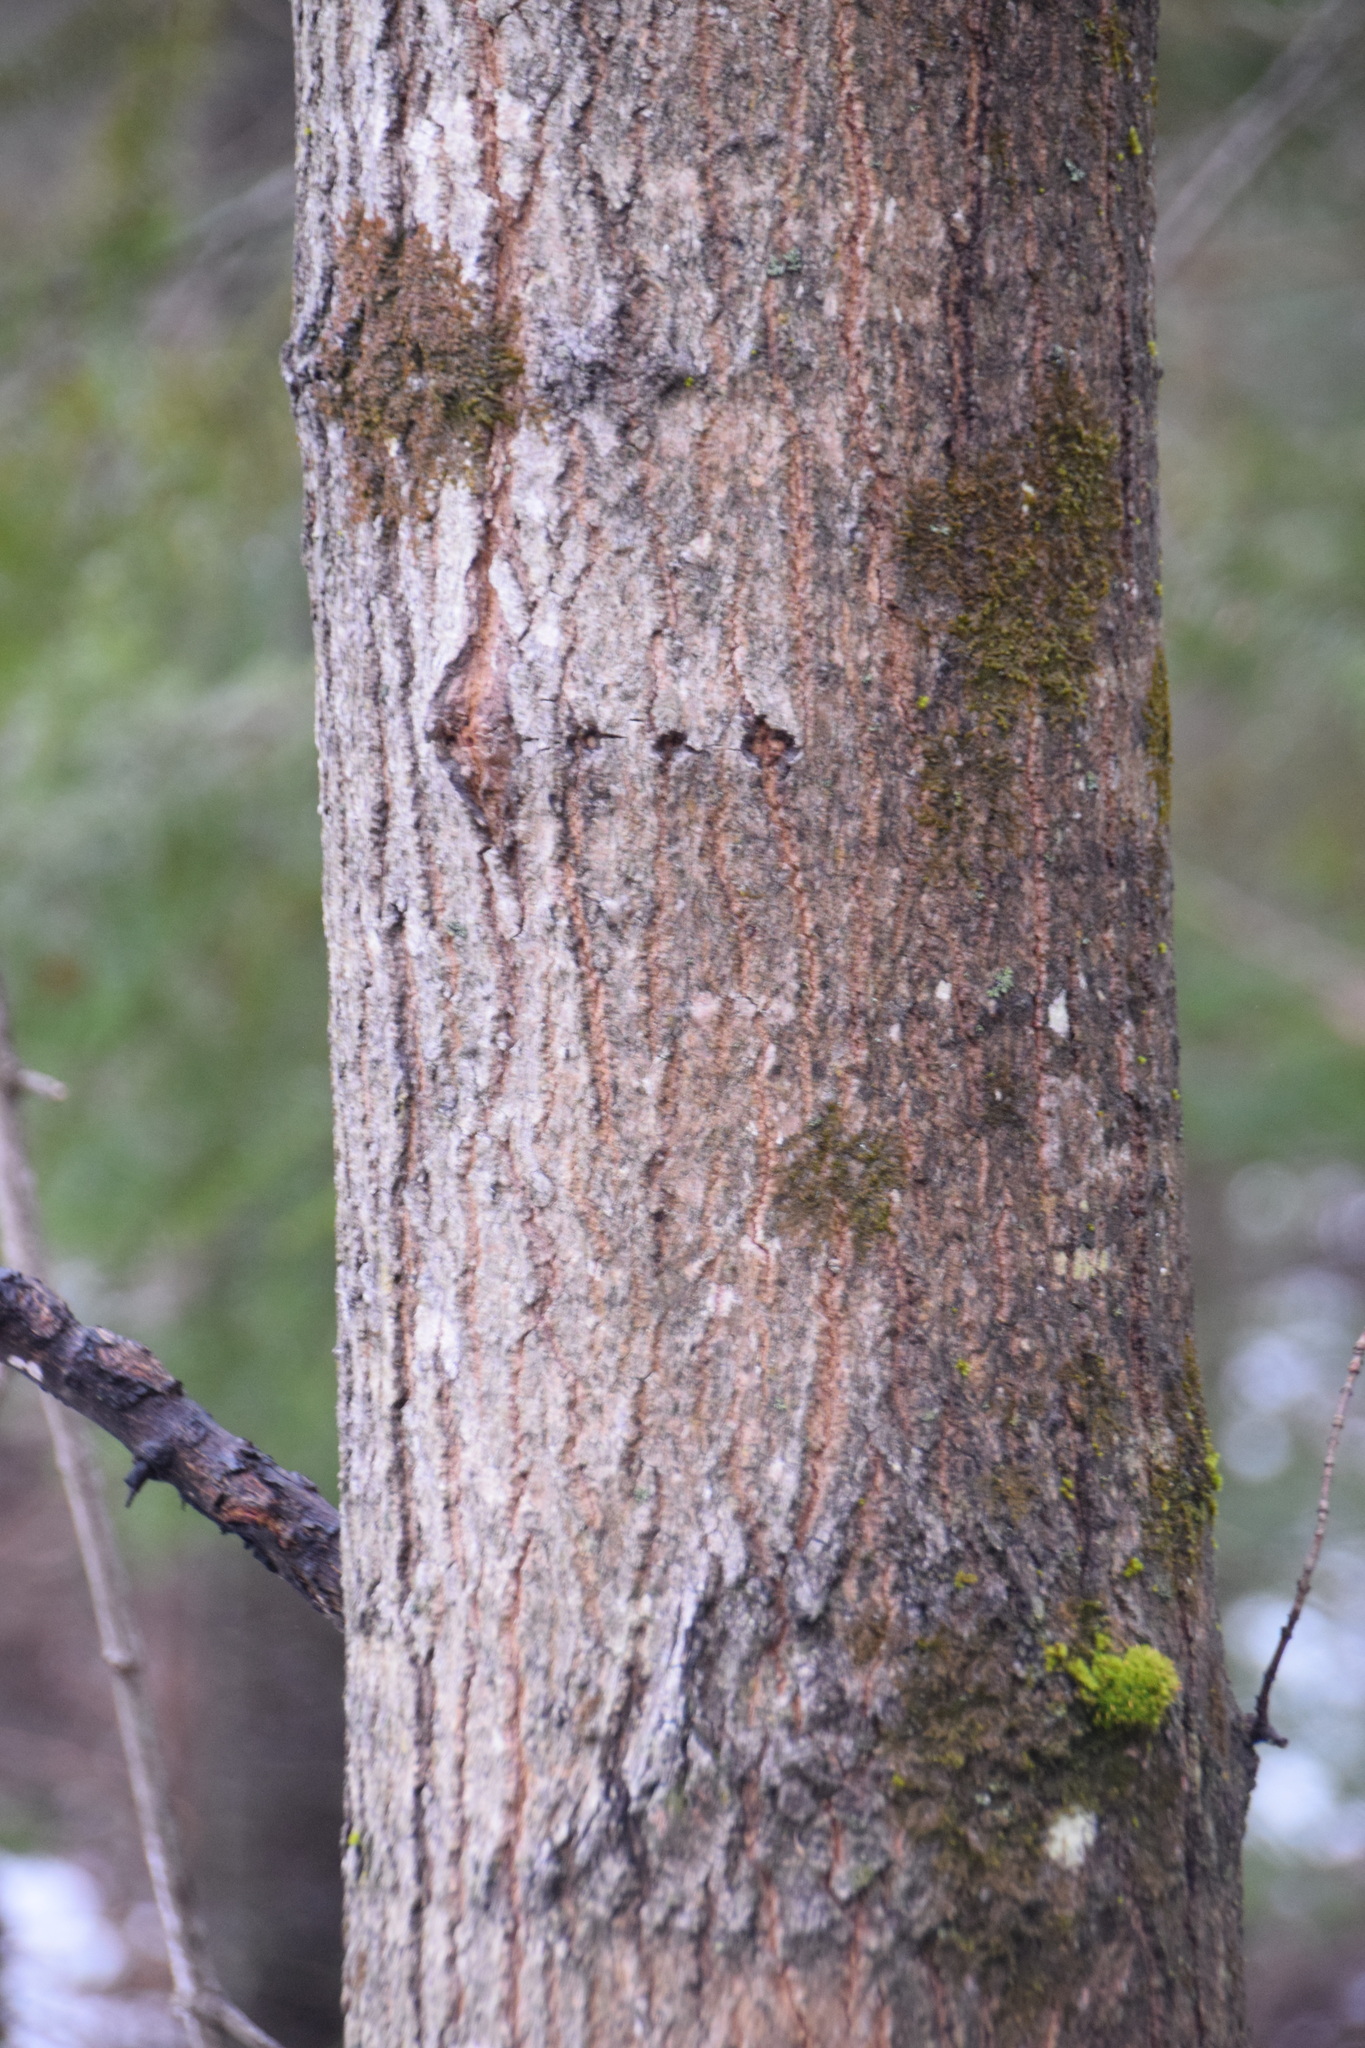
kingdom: Plantae
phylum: Tracheophyta
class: Magnoliopsida
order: Sapindales
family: Sapindaceae
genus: Acer
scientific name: Acer saccharum
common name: Sugar maple
